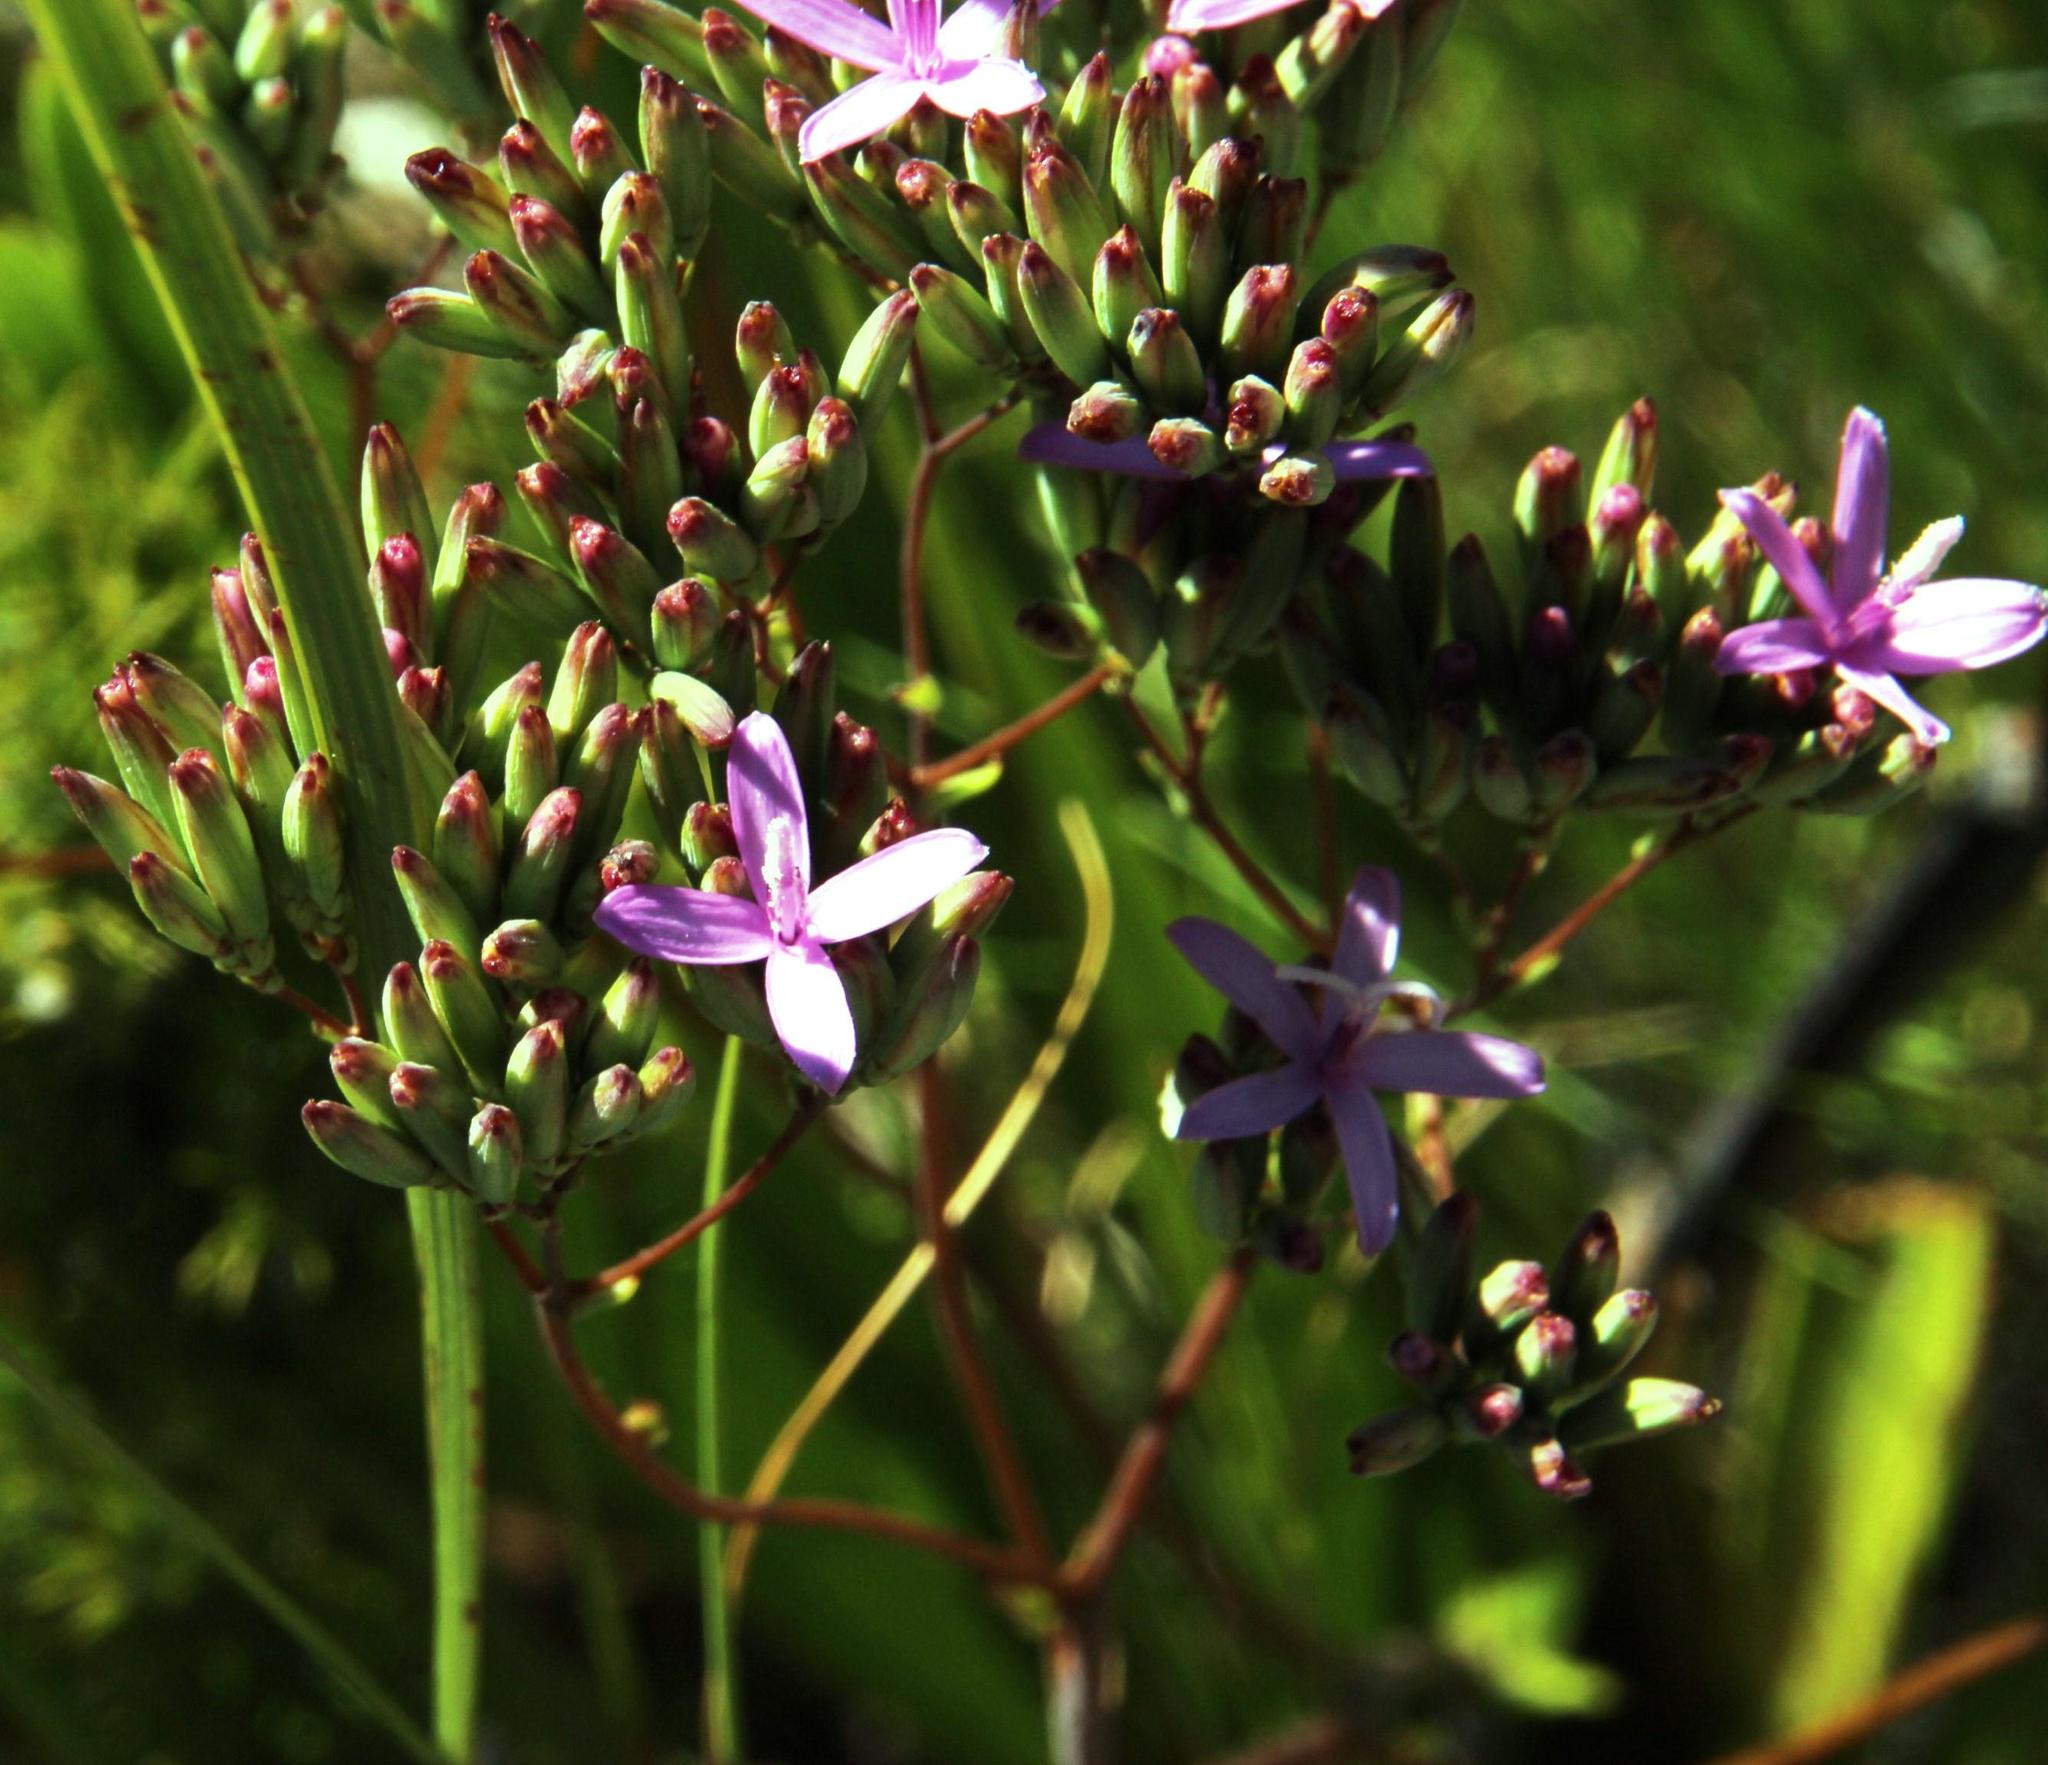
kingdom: Plantae
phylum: Tracheophyta
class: Magnoliopsida
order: Asterales
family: Asteraceae
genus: Corymbium
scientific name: Corymbium glabrum
